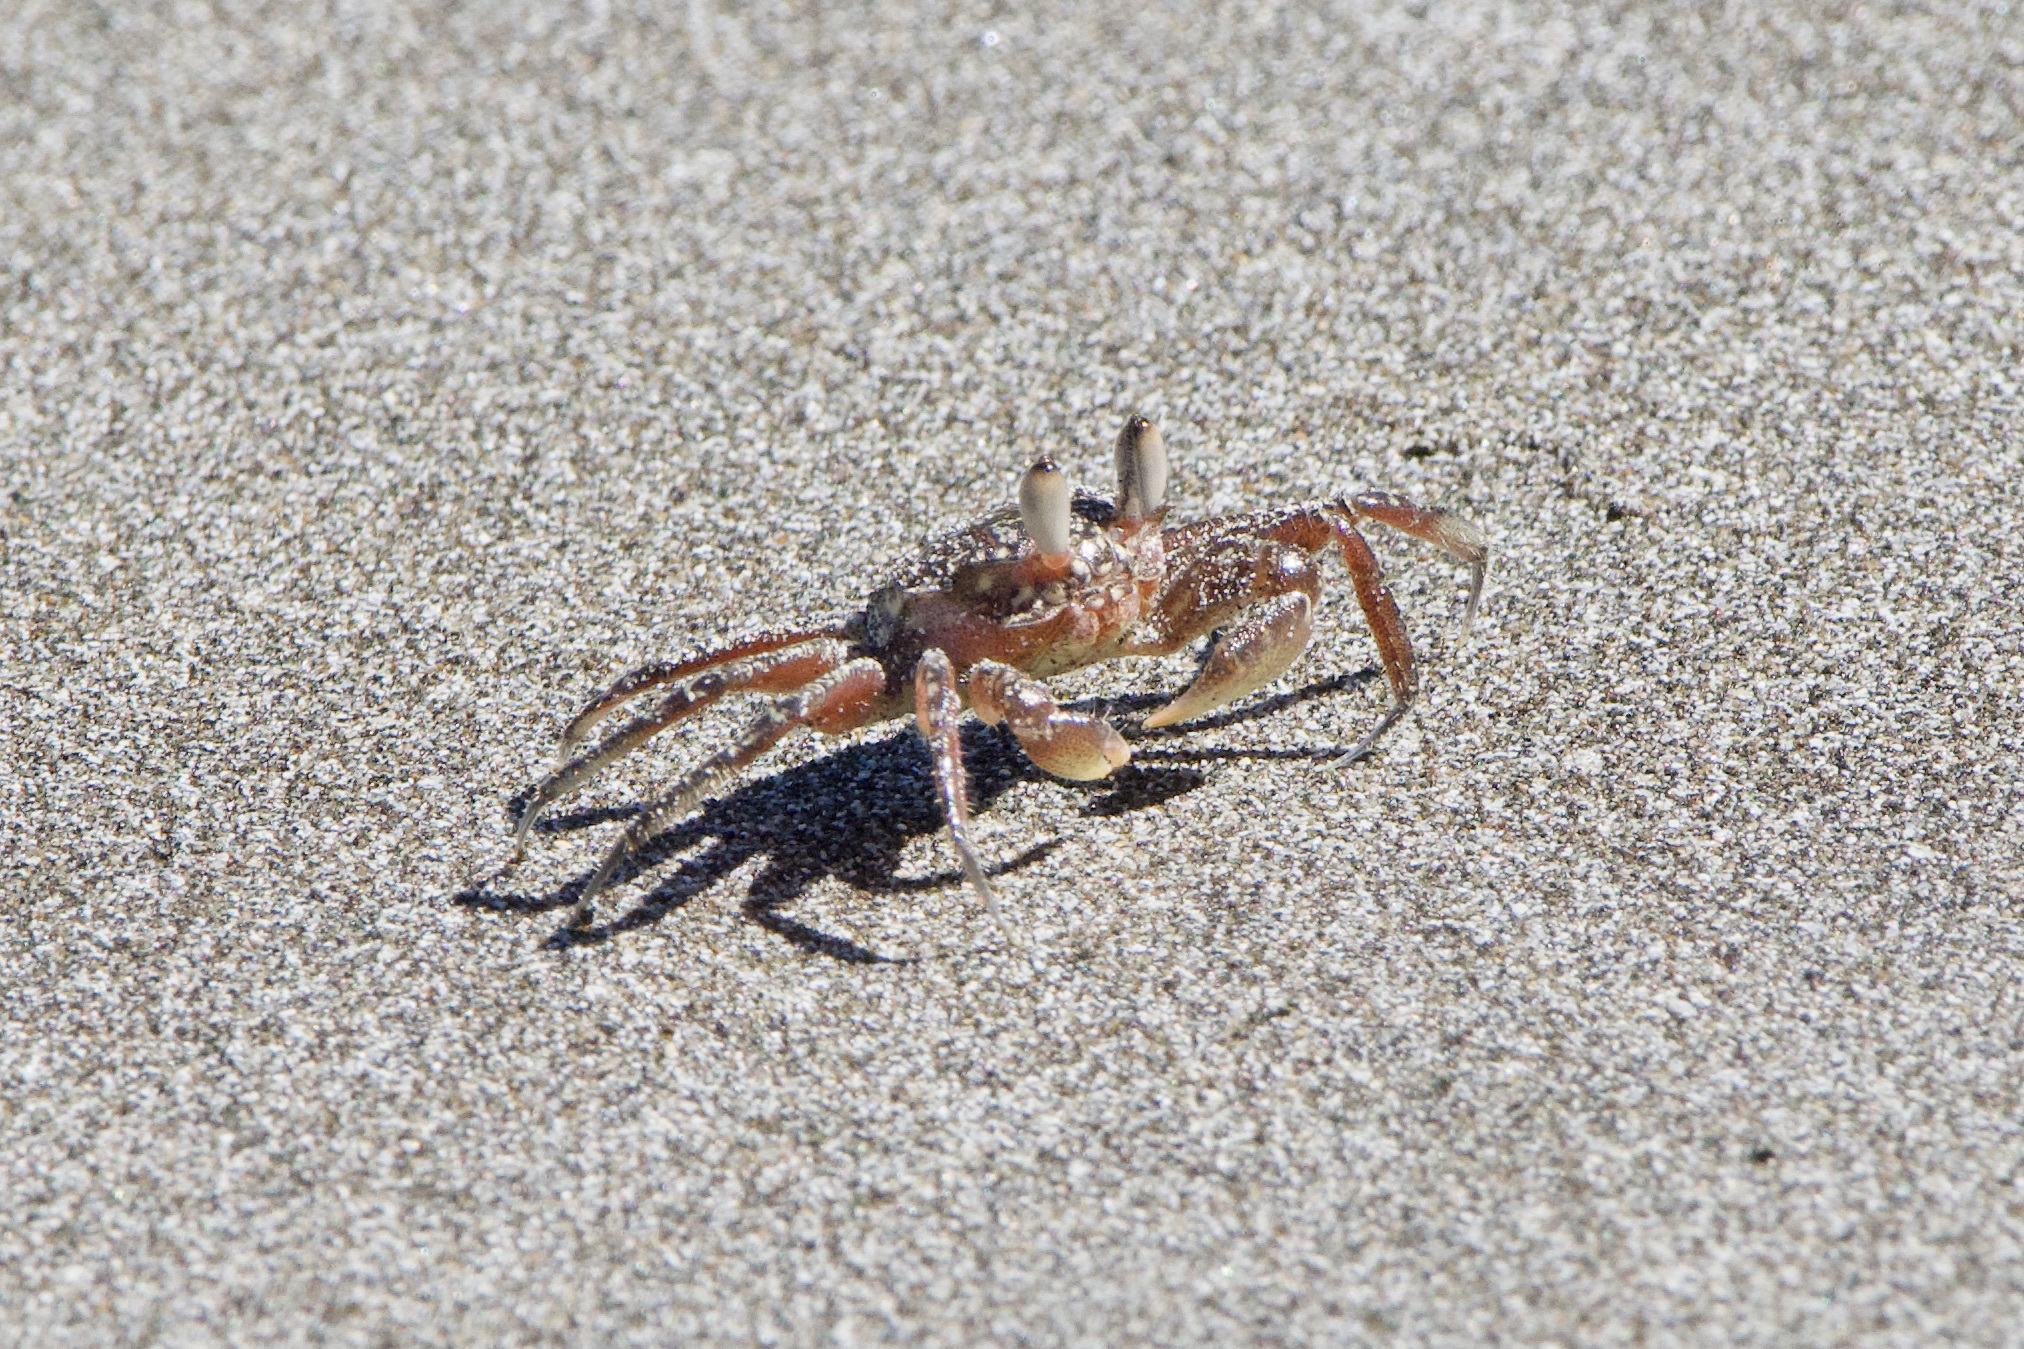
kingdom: Animalia
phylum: Arthropoda
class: Malacostraca
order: Decapoda
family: Ocypodidae
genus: Ocypode
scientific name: Ocypode gaudichaudii
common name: Pacific ghost crab
